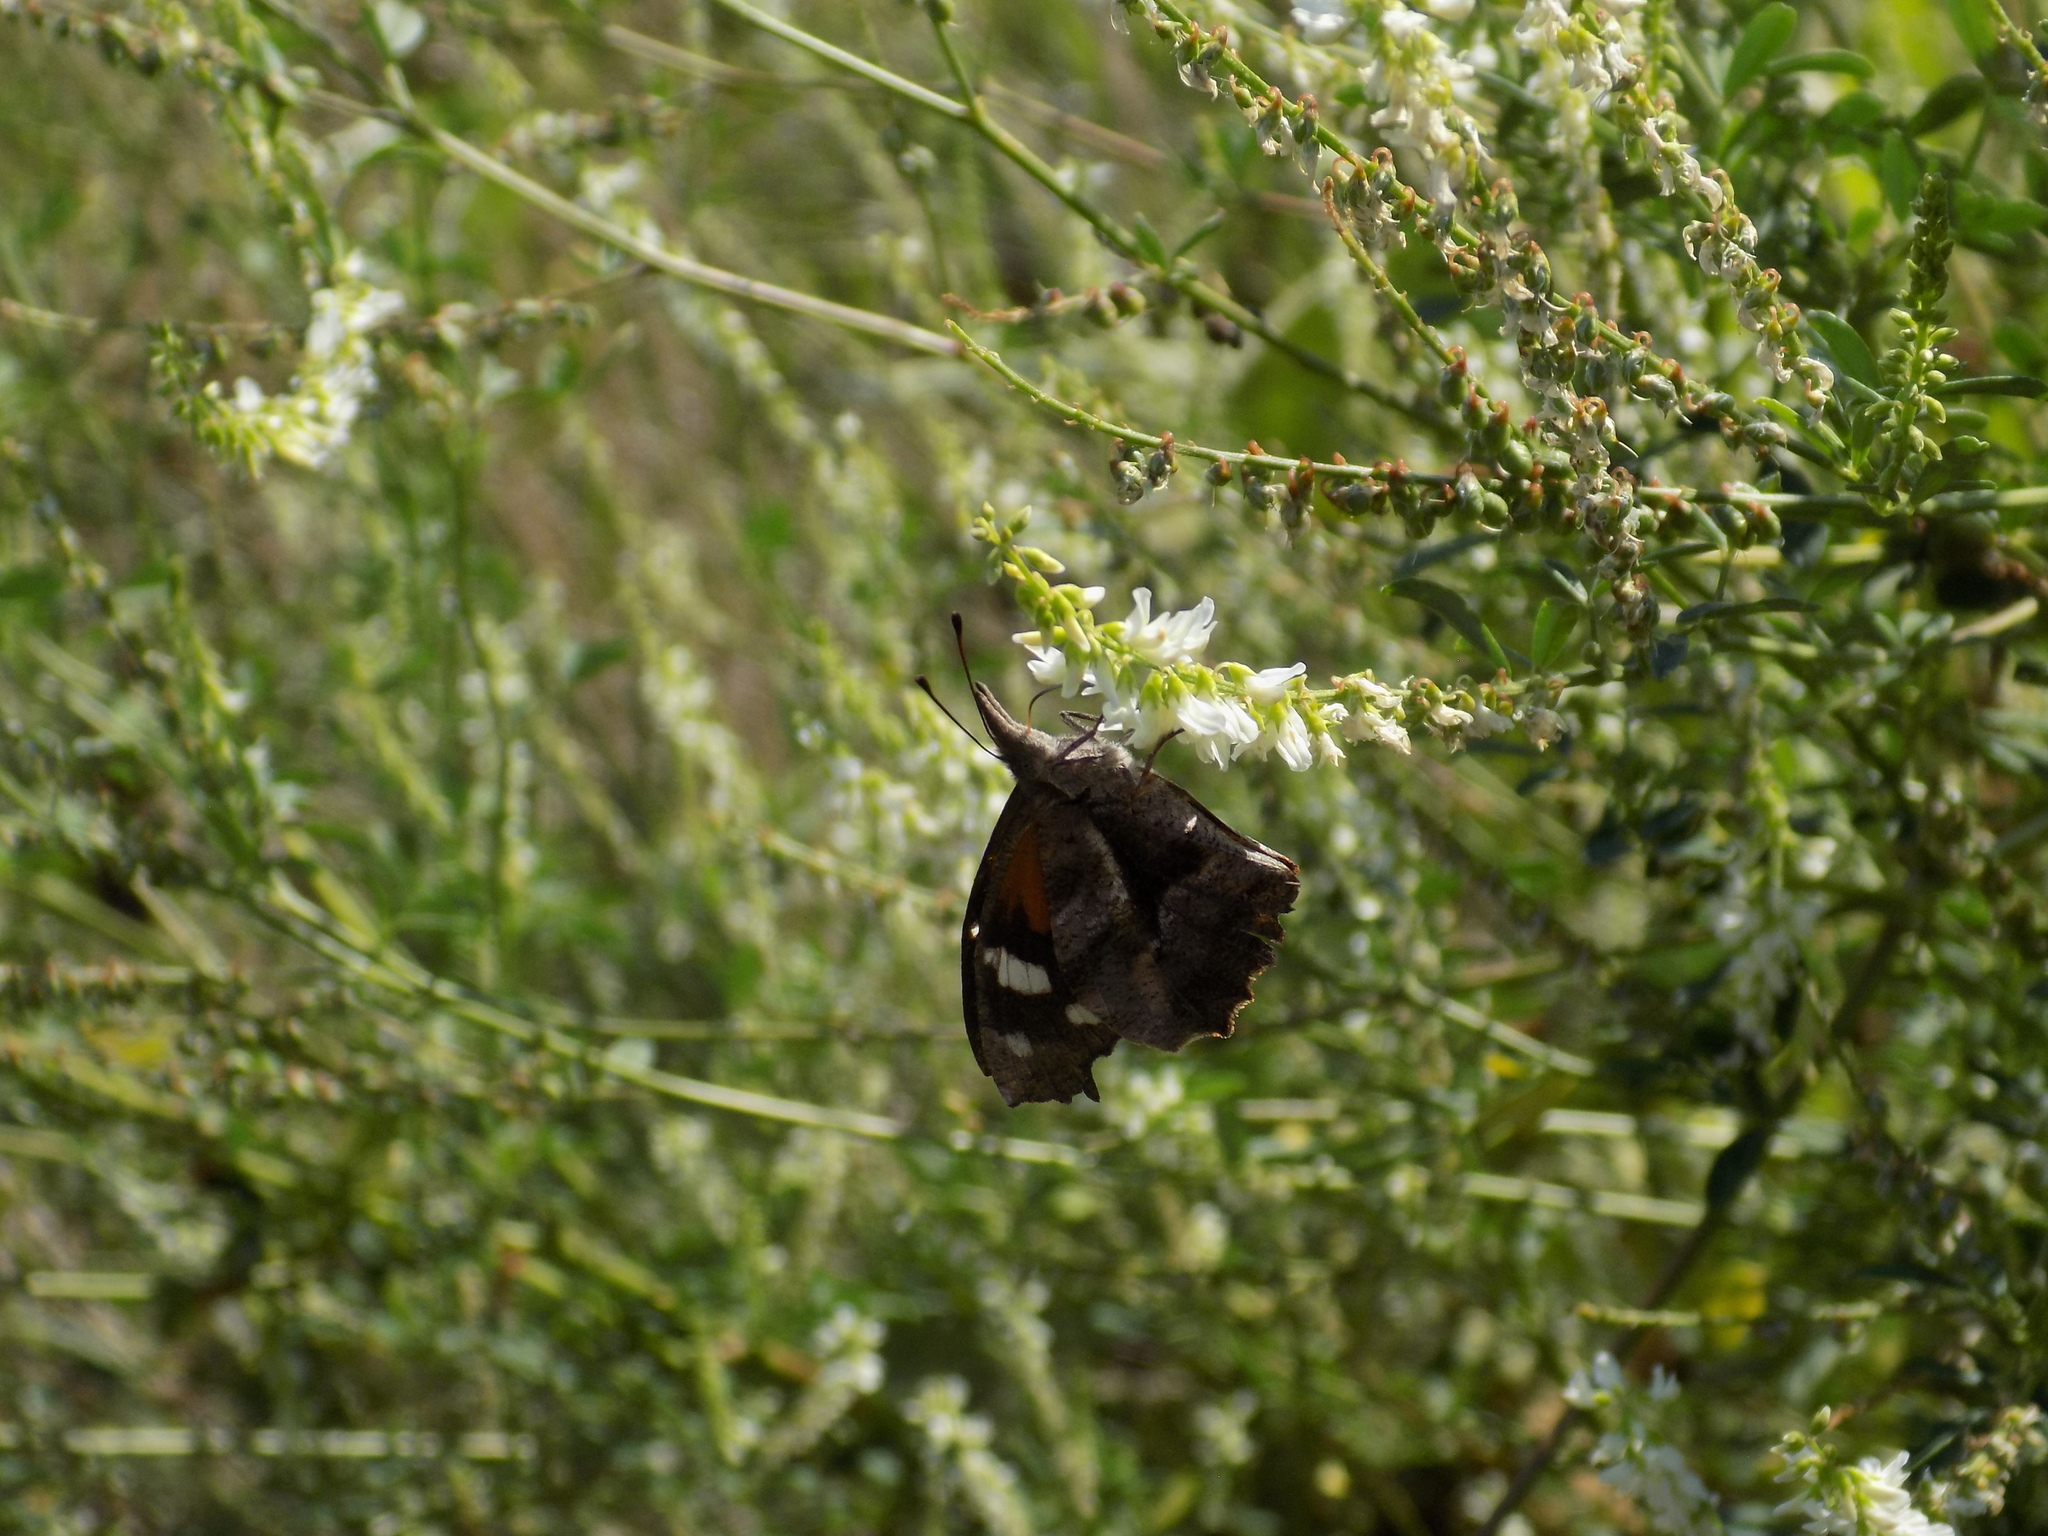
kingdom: Animalia
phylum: Arthropoda
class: Insecta
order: Lepidoptera
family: Nymphalidae
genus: Libytheana
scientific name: Libytheana carinenta
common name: American snout
